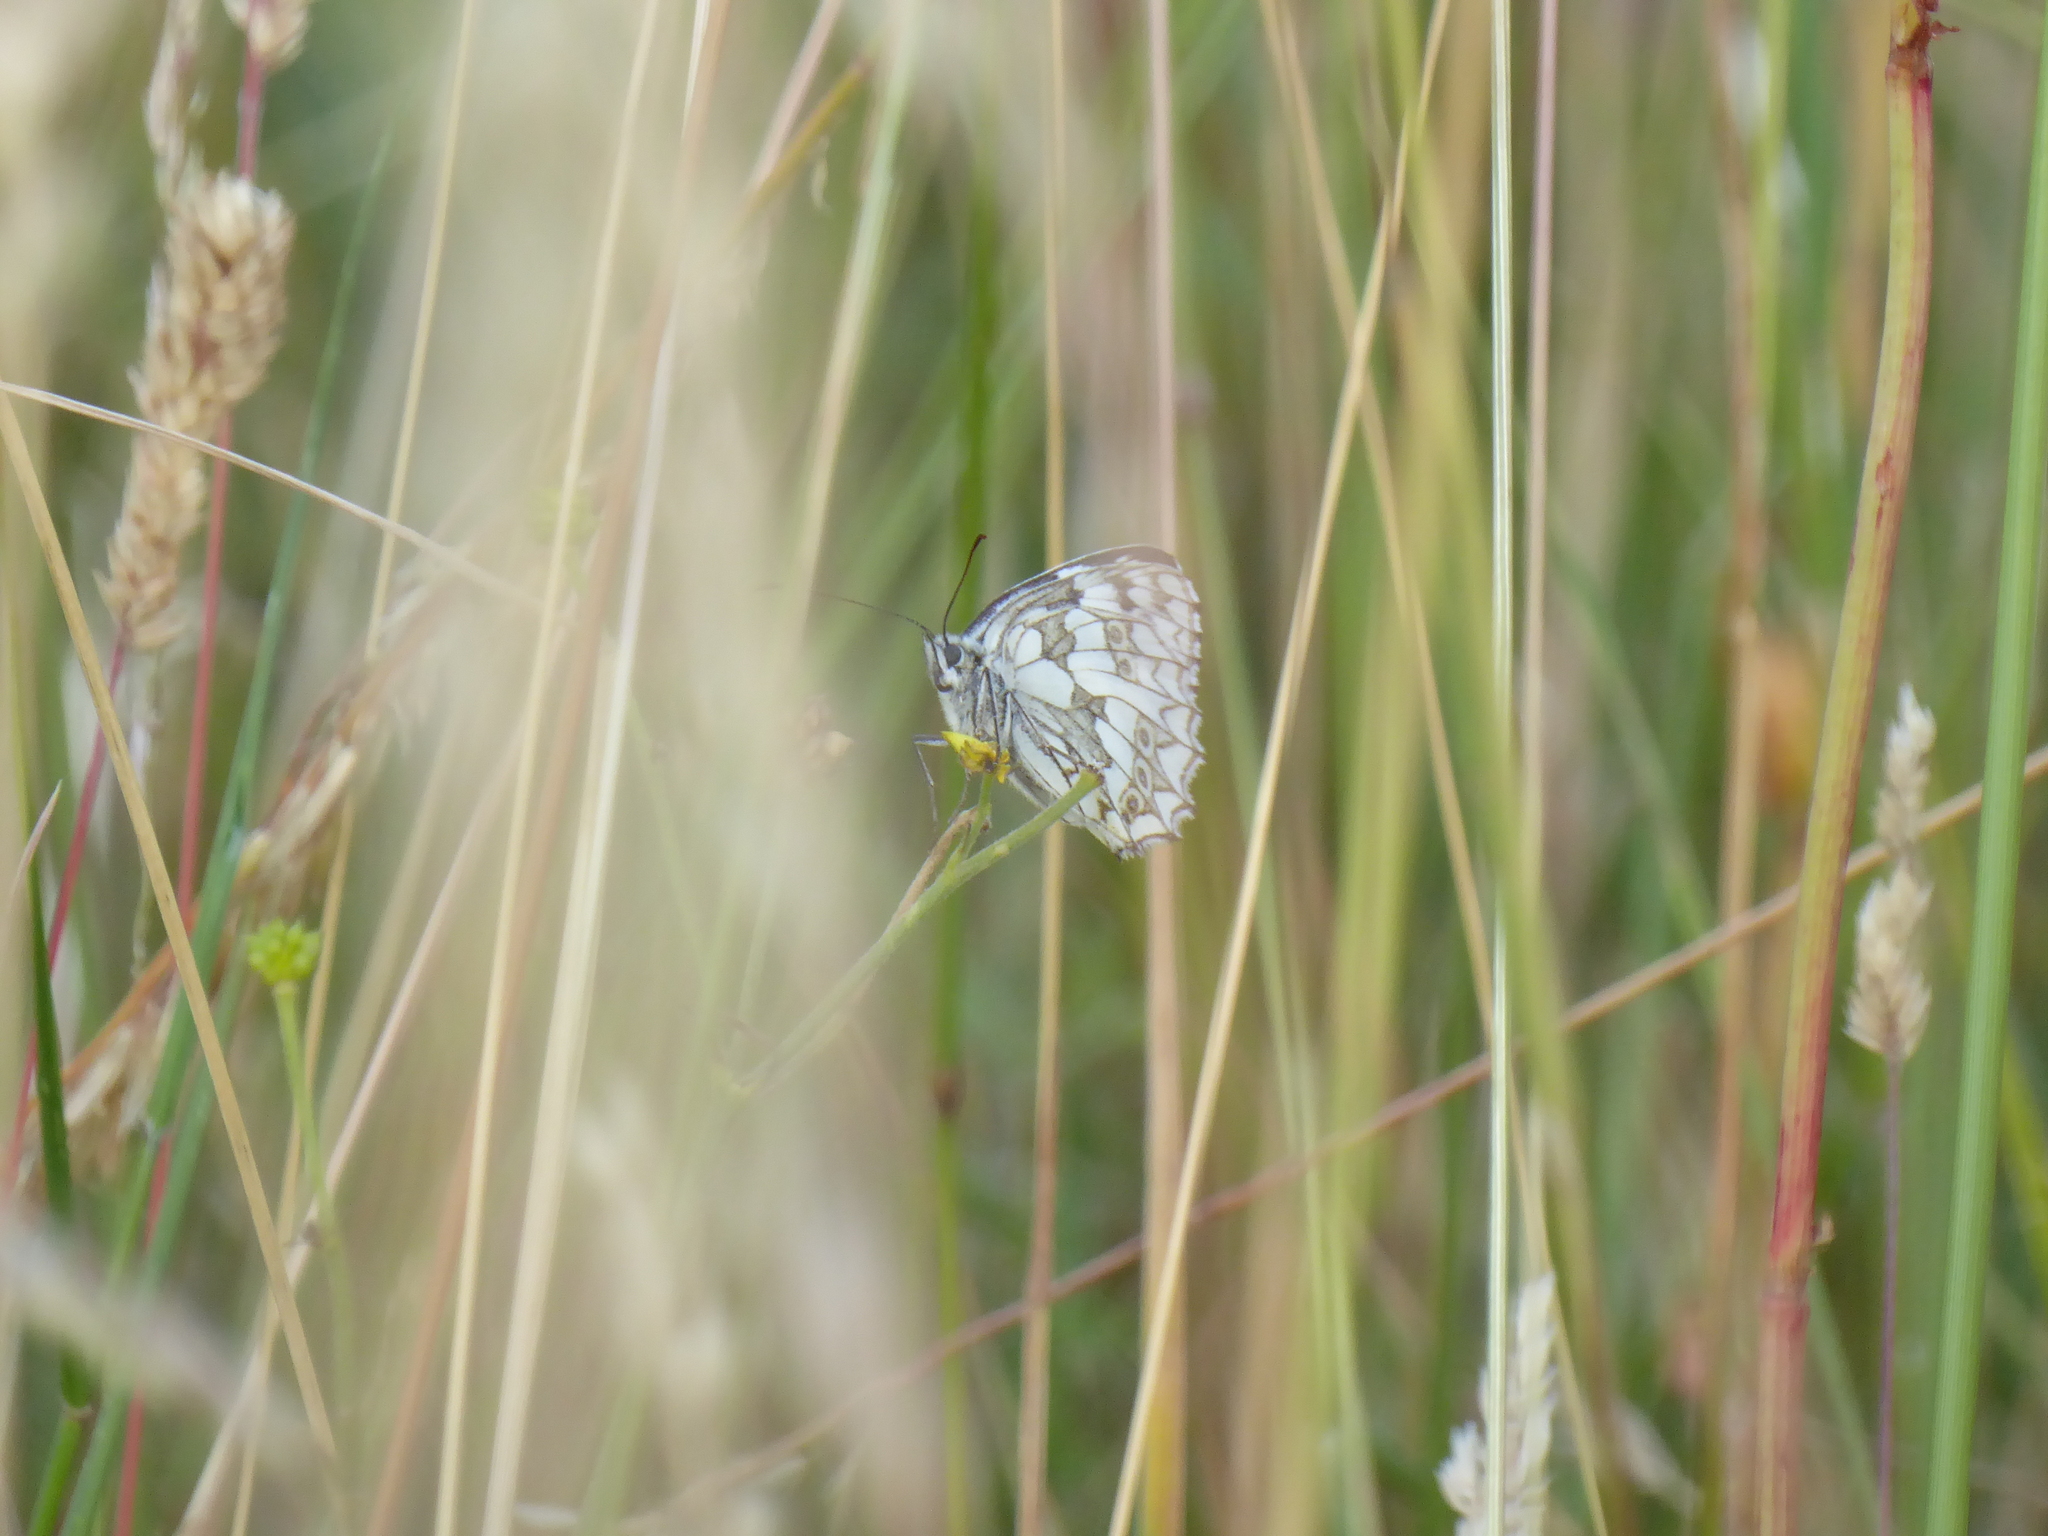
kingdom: Animalia
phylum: Arthropoda
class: Insecta
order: Lepidoptera
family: Nymphalidae
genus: Melanargia
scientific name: Melanargia galathea
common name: Marbled white
